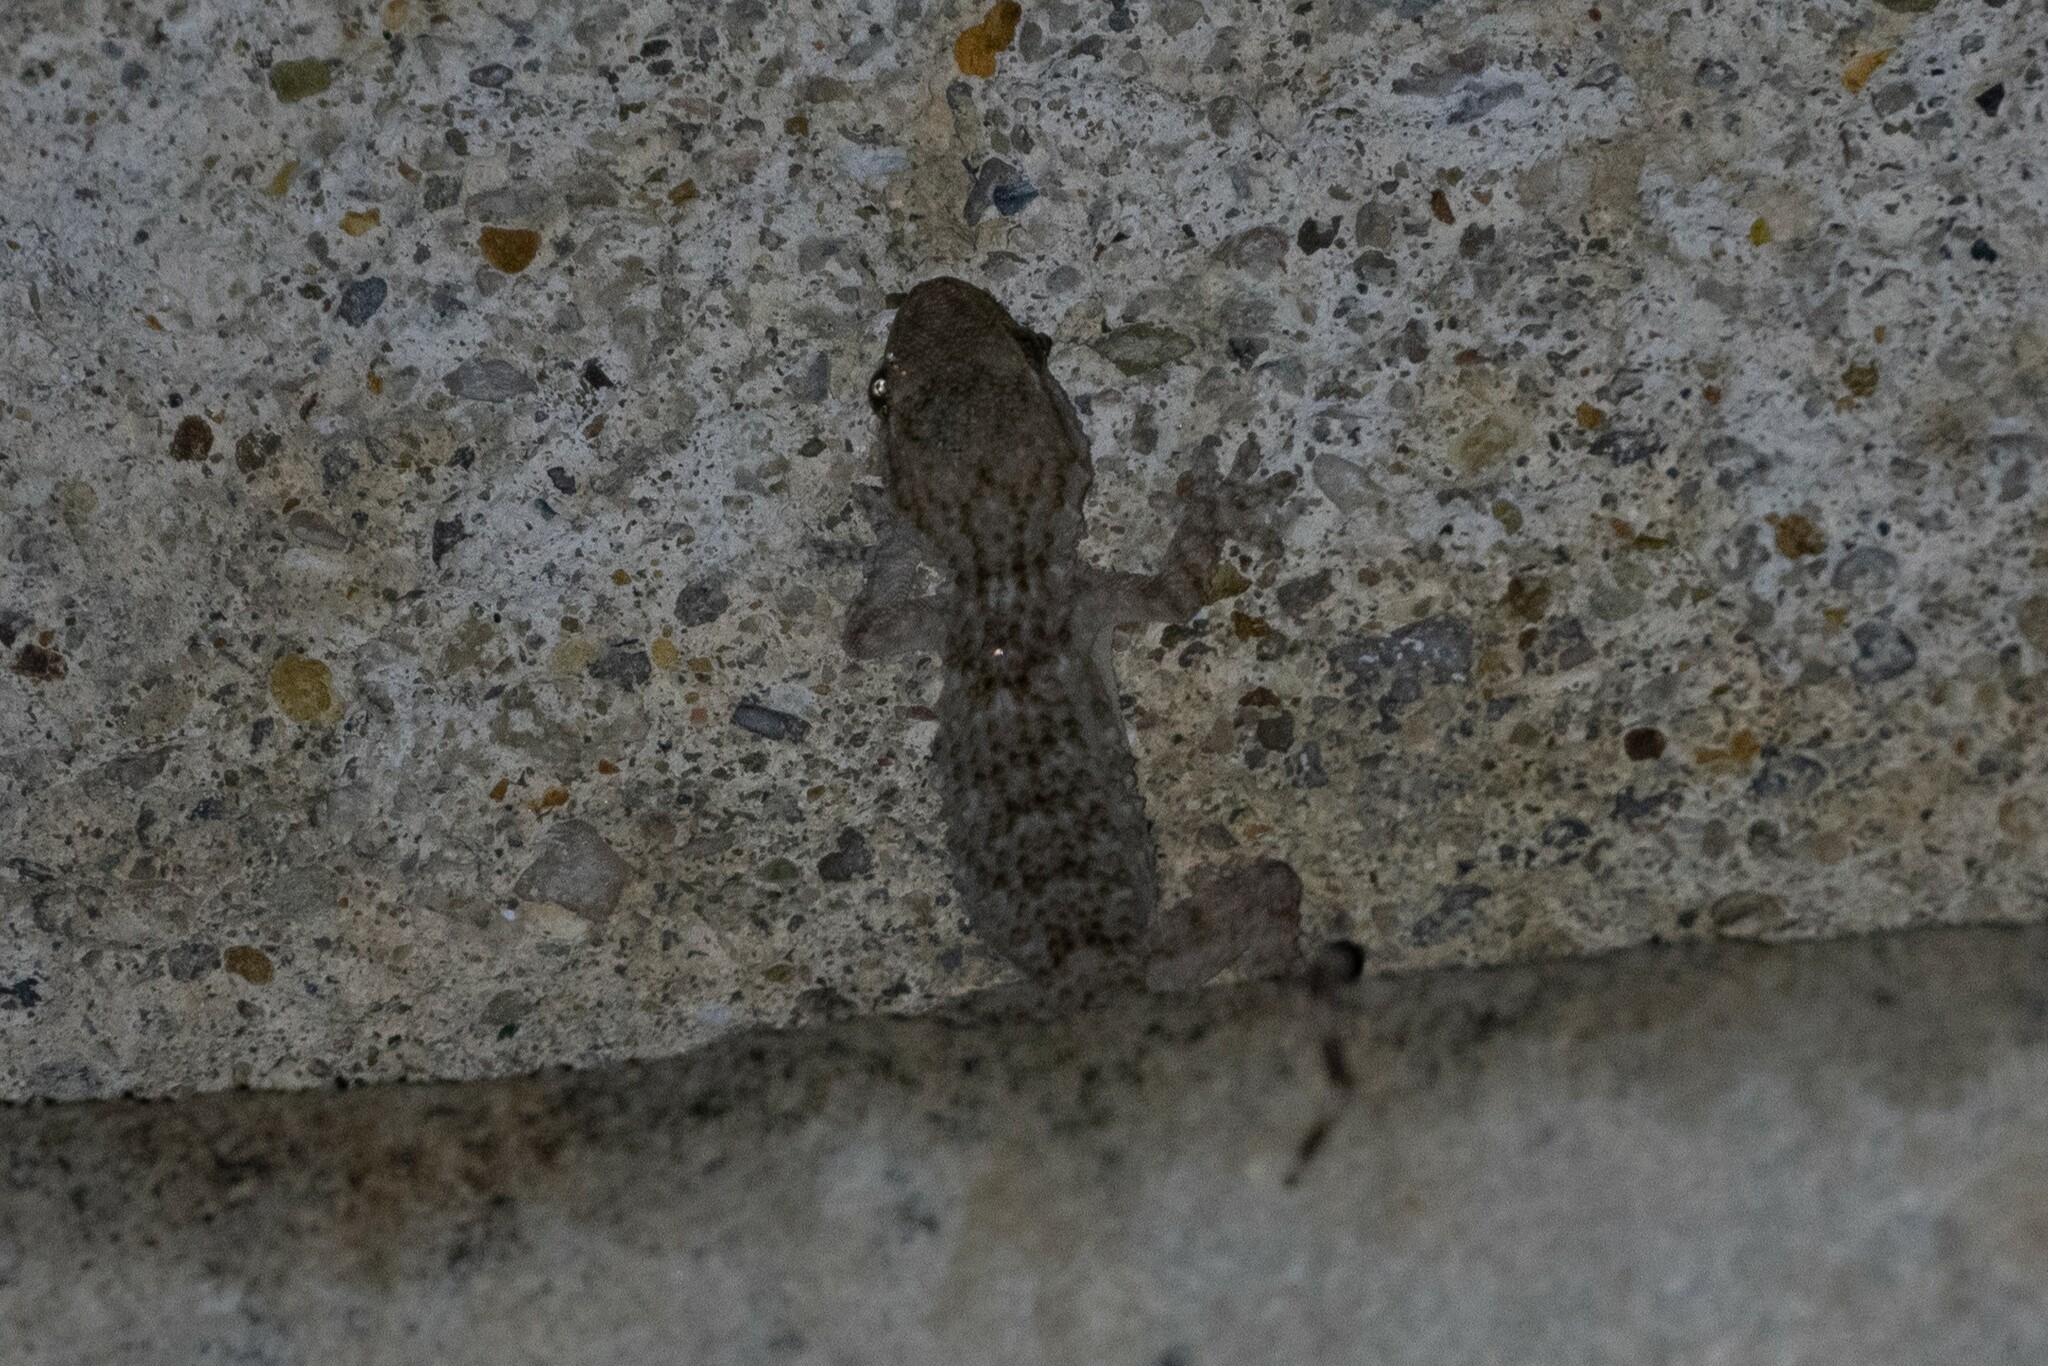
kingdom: Animalia
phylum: Chordata
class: Squamata
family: Phyllodactylidae
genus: Tarentola
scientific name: Tarentola mauritanica
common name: Moorish gecko
